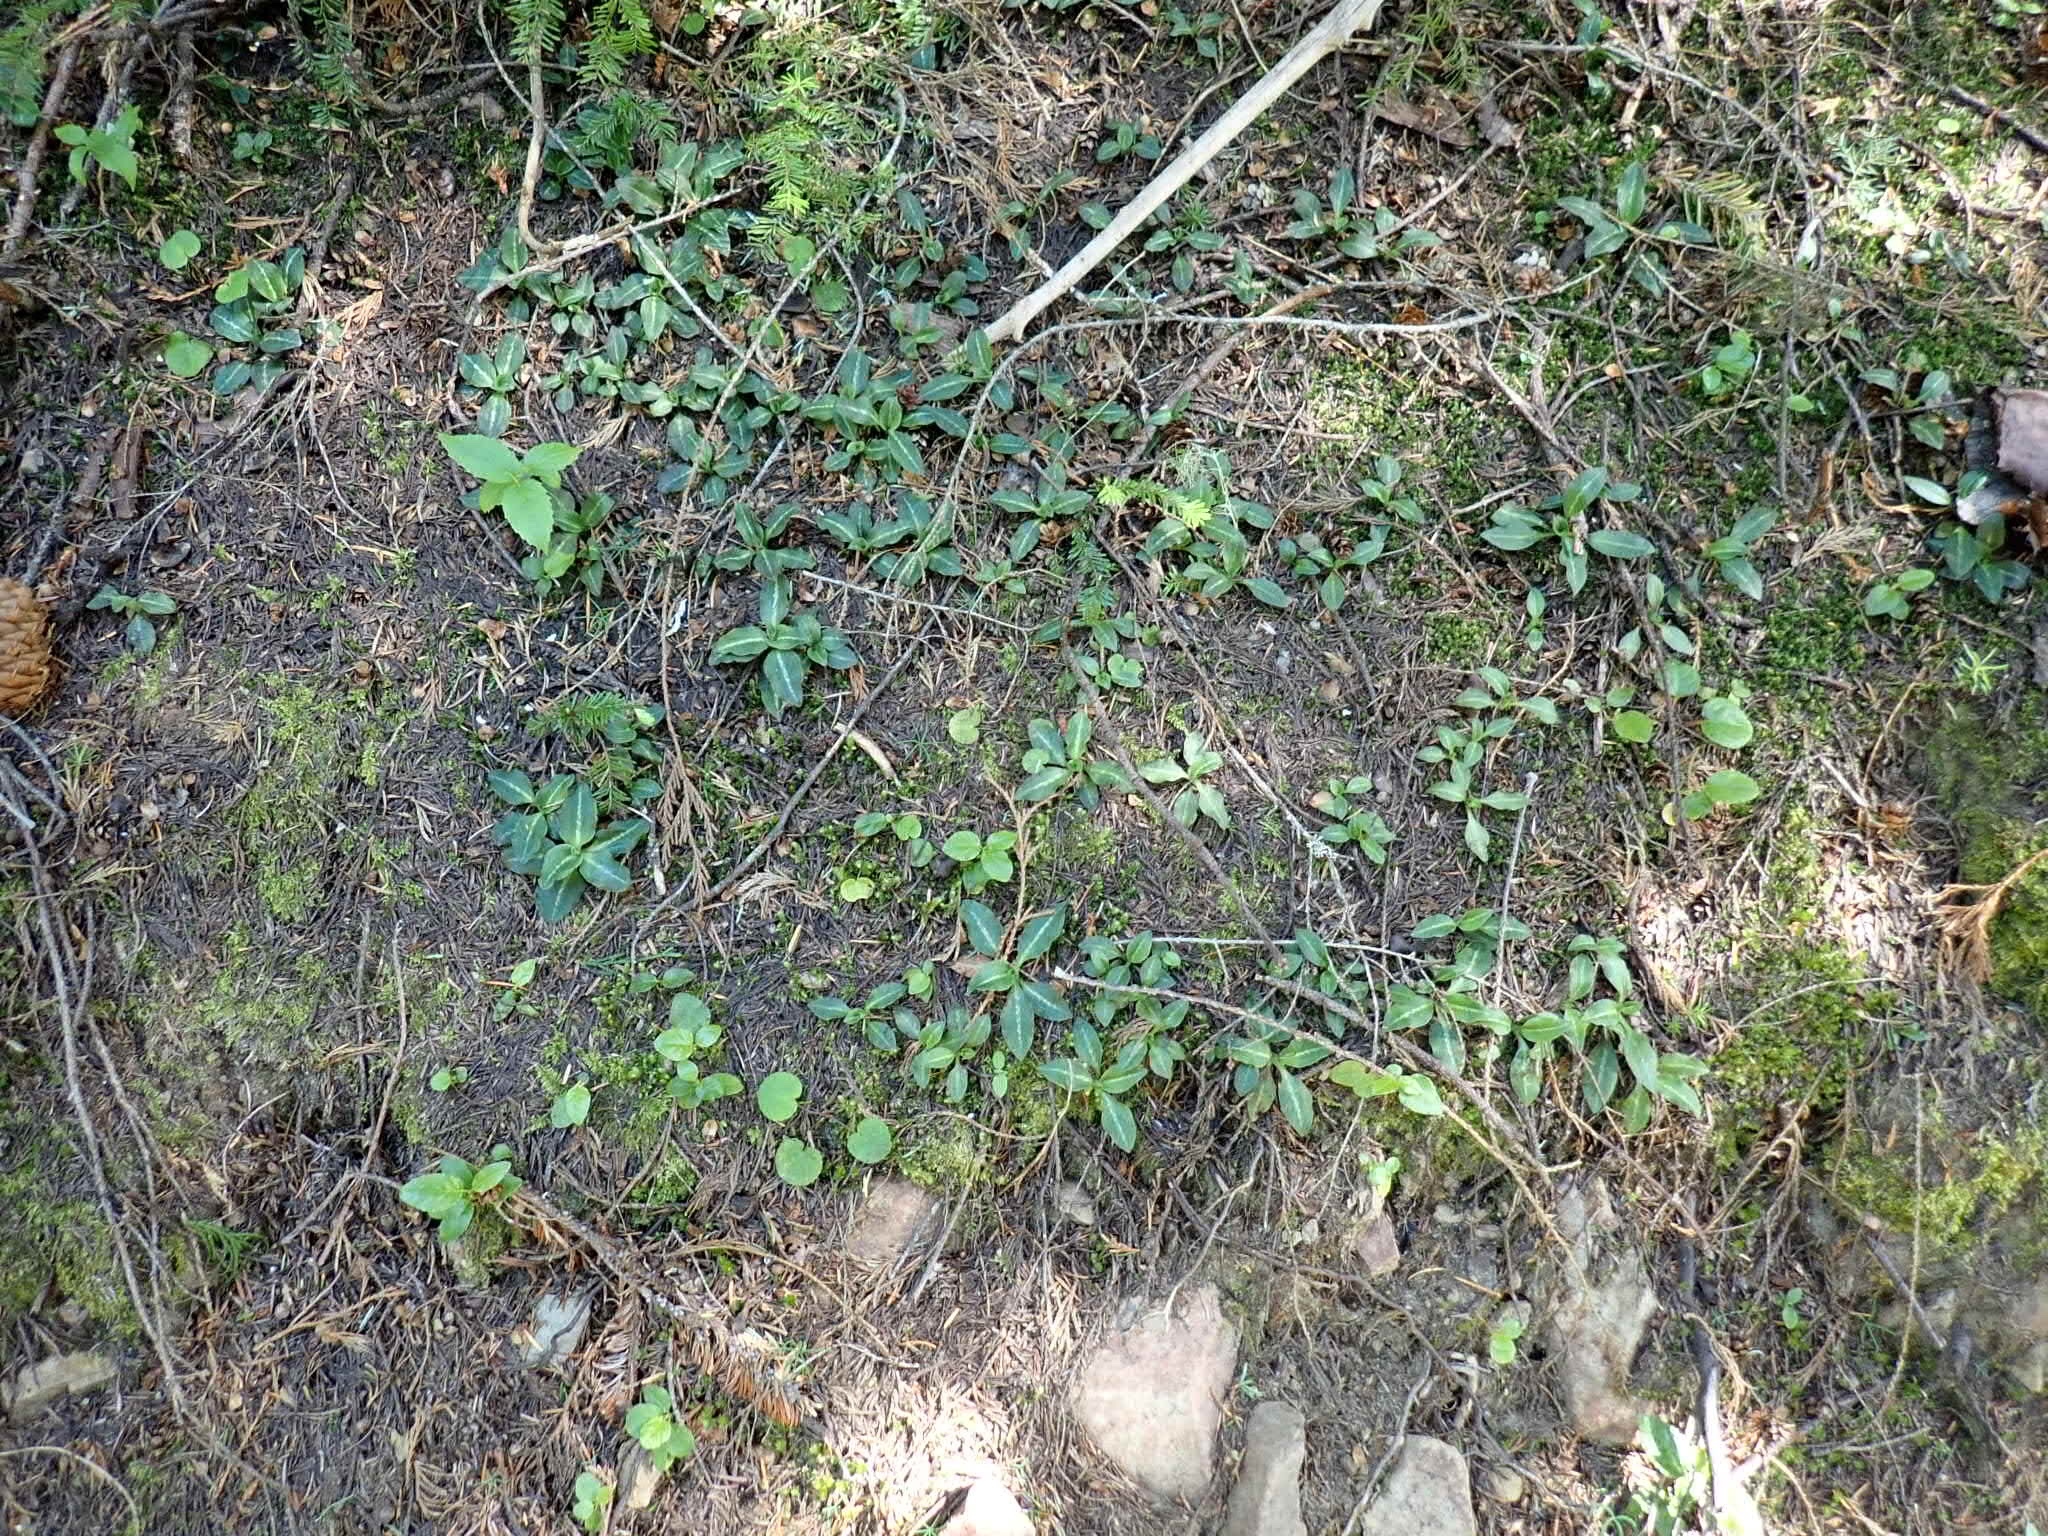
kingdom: Plantae
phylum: Tracheophyta
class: Liliopsida
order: Asparagales
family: Orchidaceae
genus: Goodyera
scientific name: Goodyera oblongifolia
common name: Giant rattlesnake-plantain
